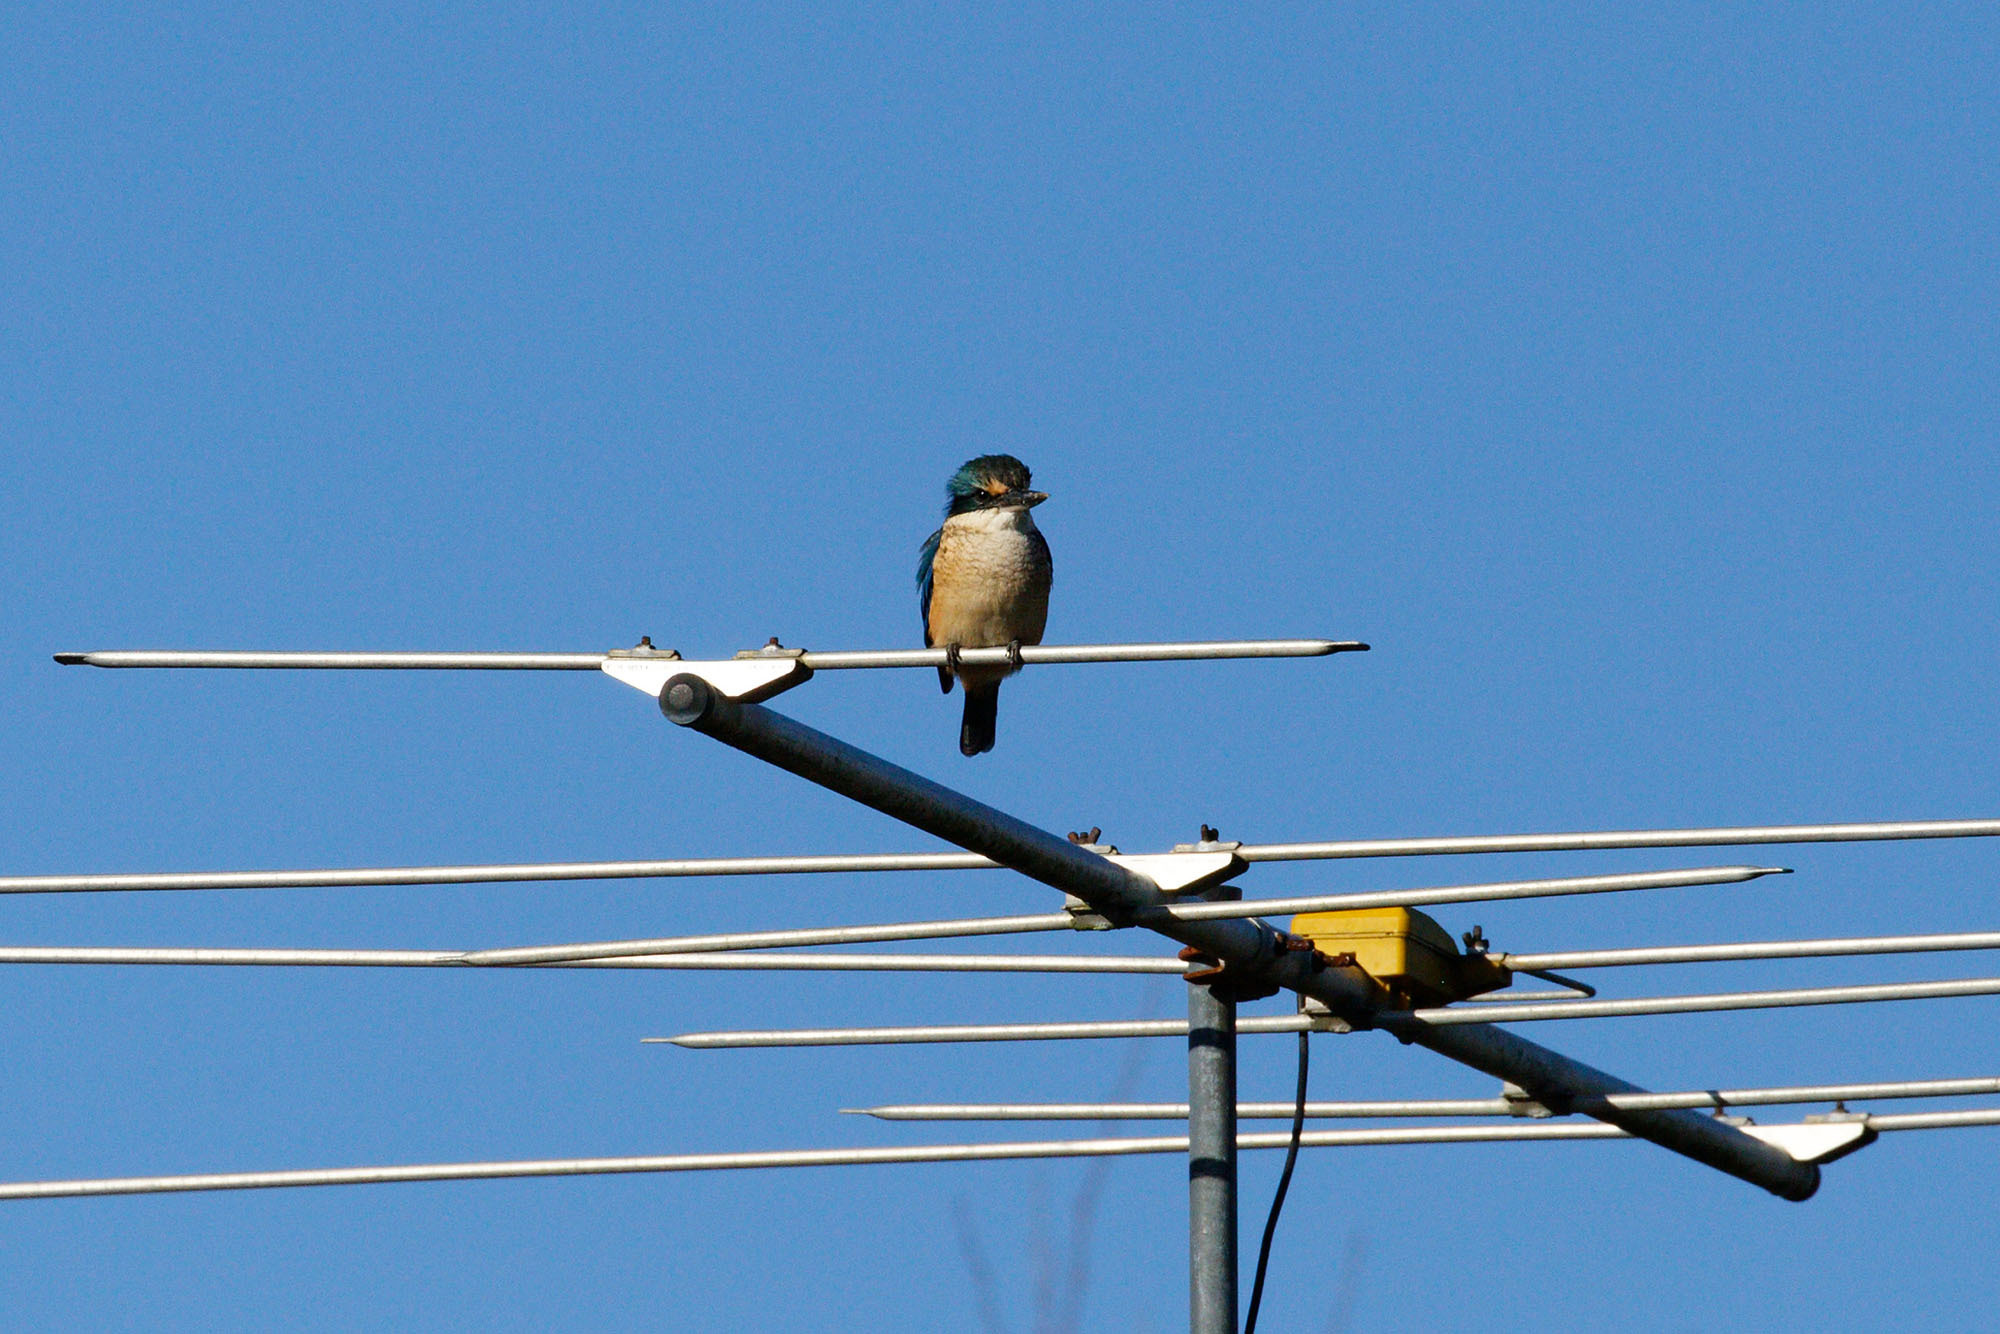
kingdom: Animalia
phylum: Chordata
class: Aves
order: Coraciiformes
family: Alcedinidae
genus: Todiramphus
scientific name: Todiramphus sanctus
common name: Sacred kingfisher
